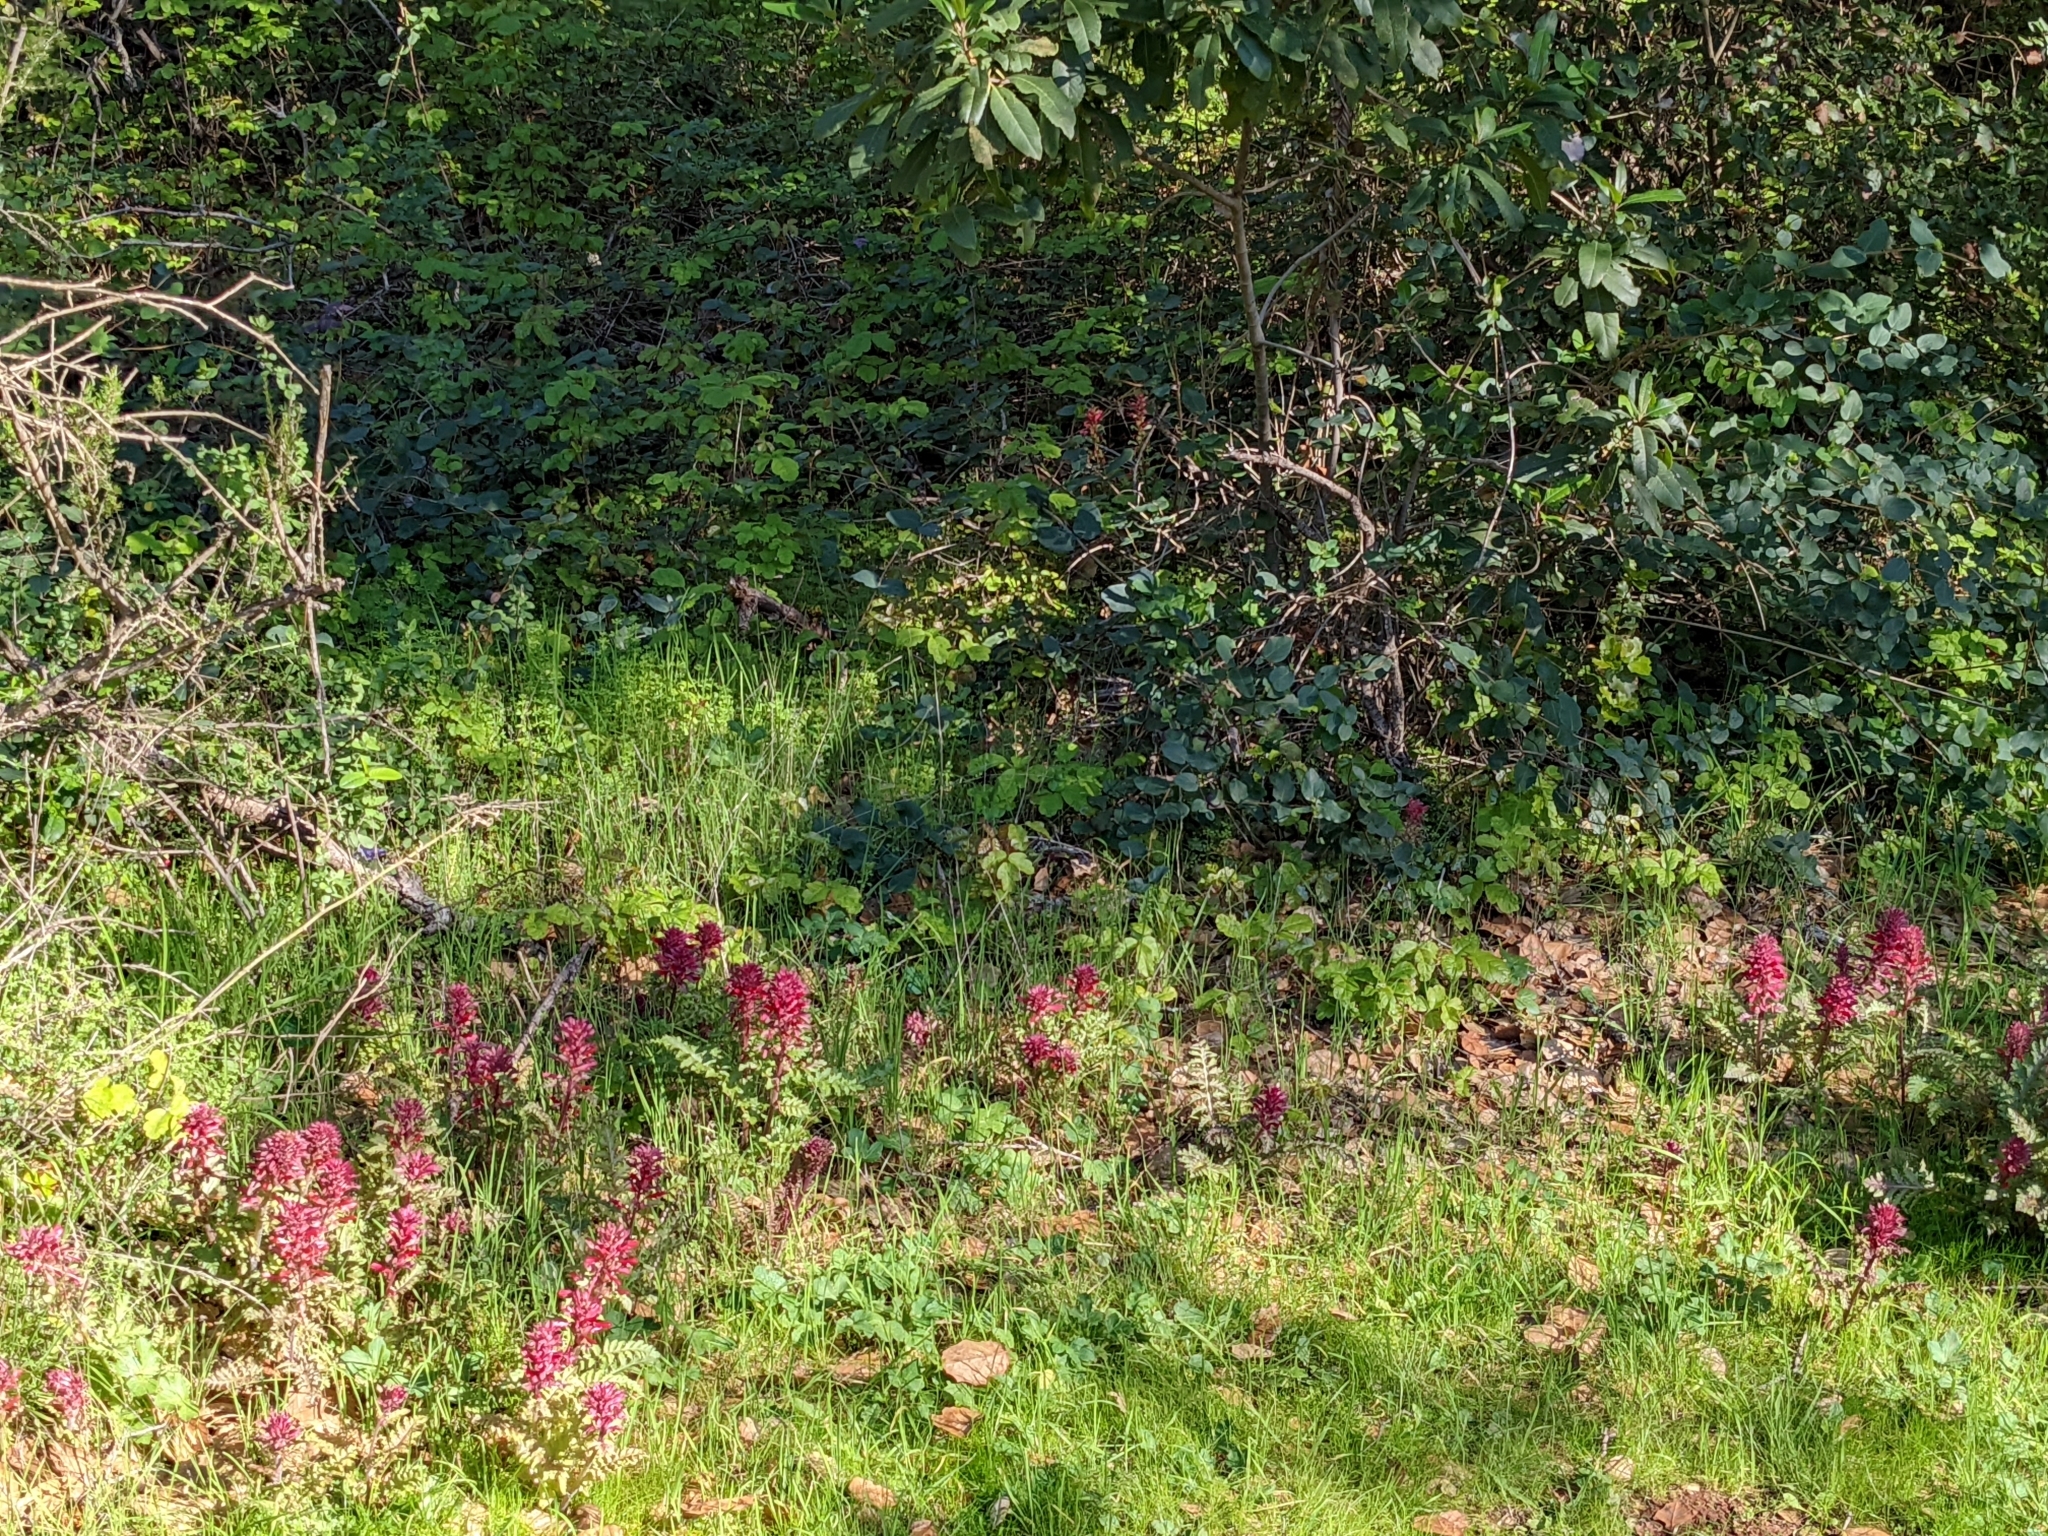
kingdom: Plantae
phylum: Tracheophyta
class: Magnoliopsida
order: Lamiales
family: Orobanchaceae
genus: Pedicularis
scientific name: Pedicularis densiflora
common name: Indian warrior
